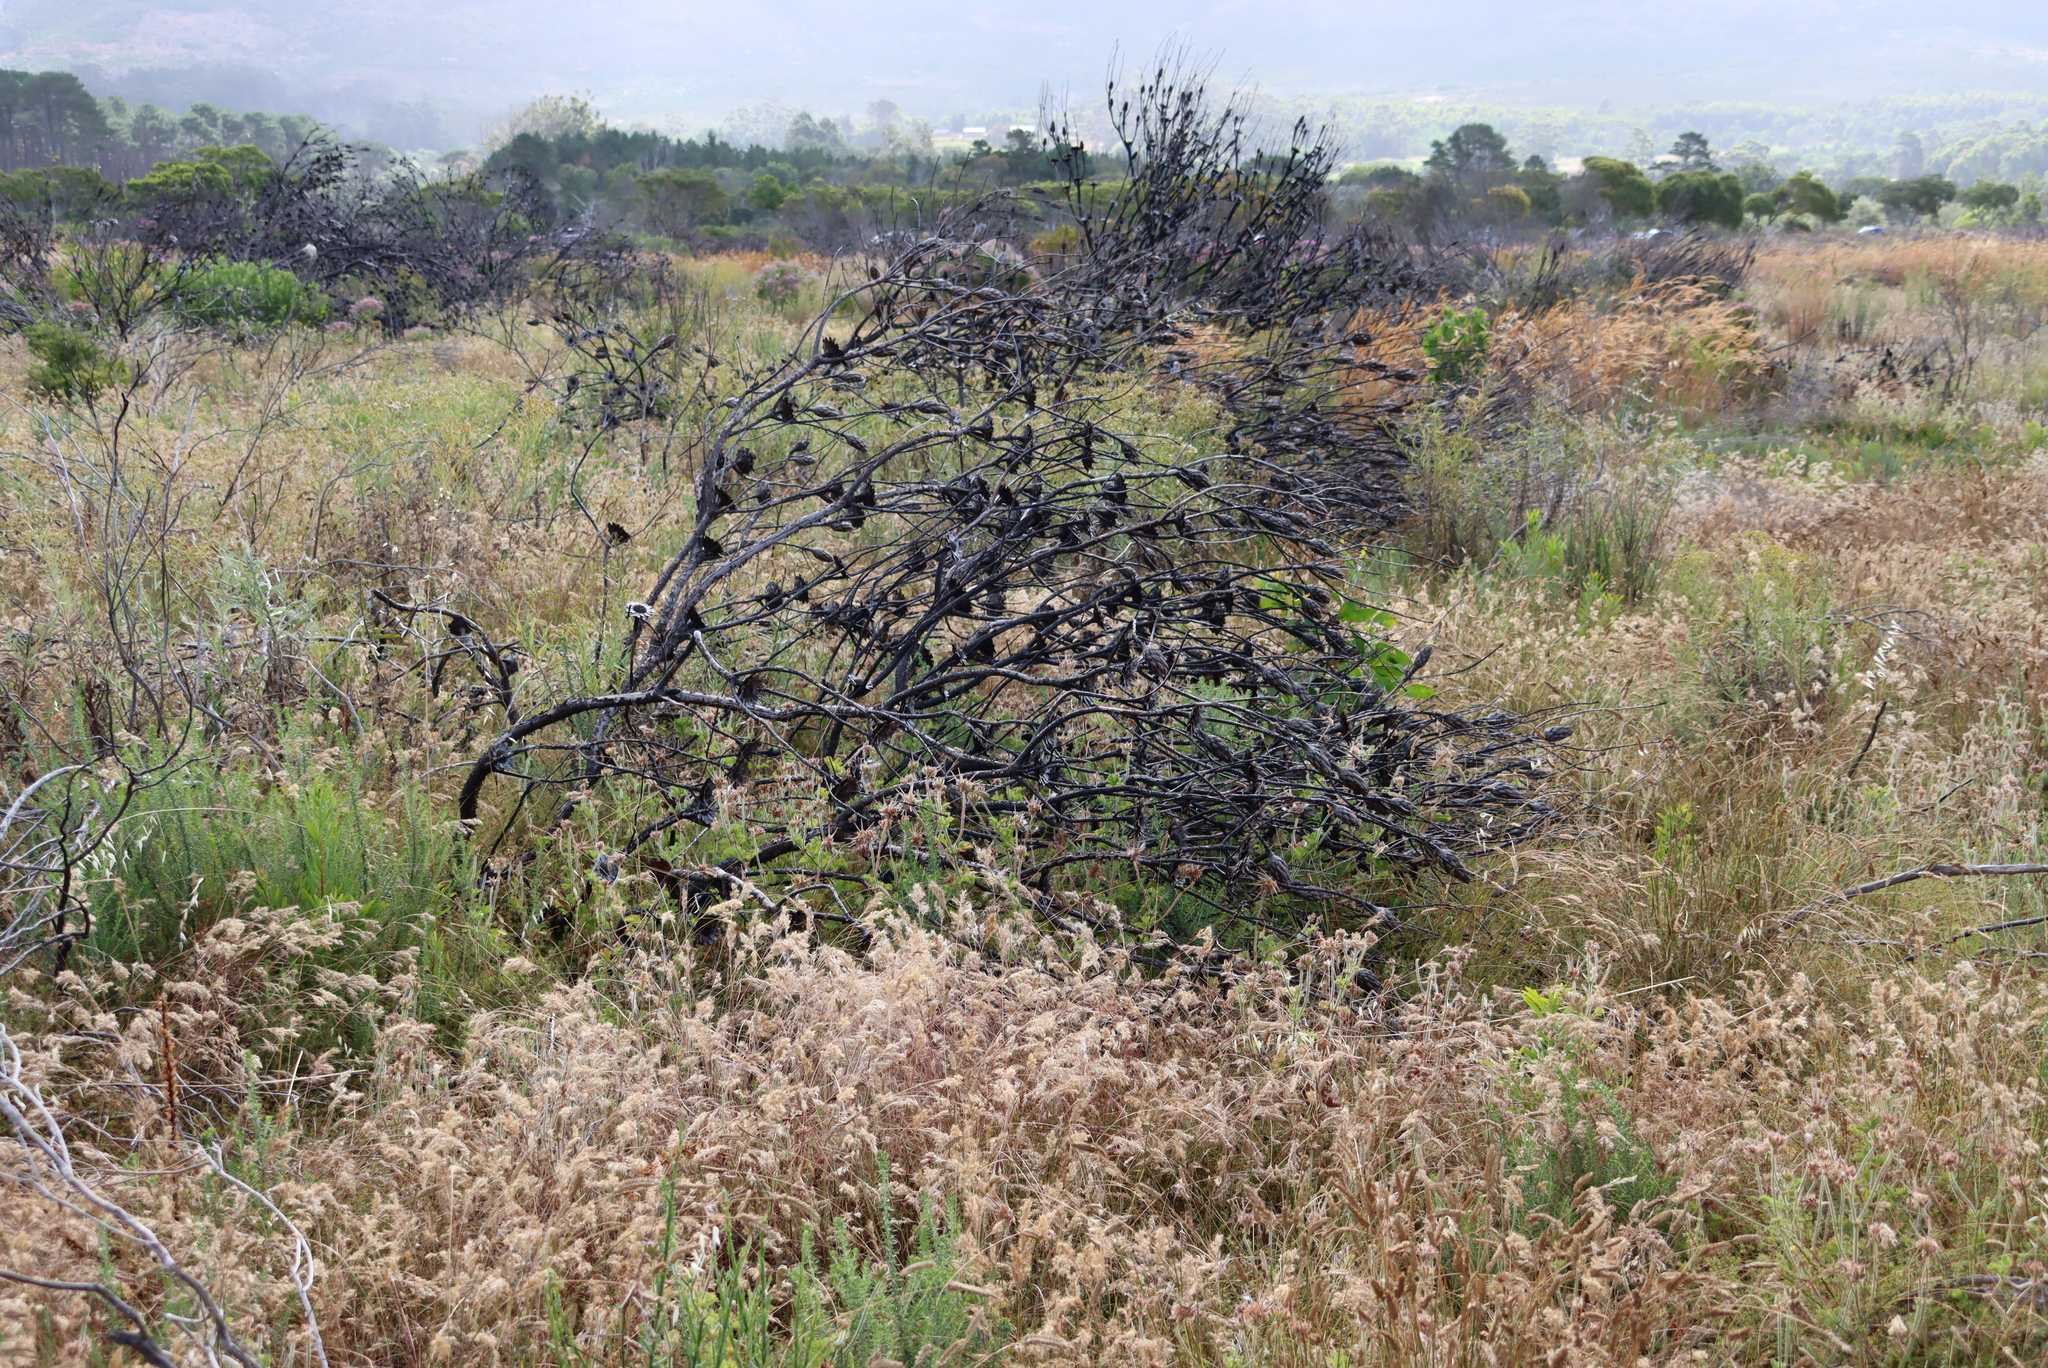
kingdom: Plantae
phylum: Tracheophyta
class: Magnoliopsida
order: Proteales
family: Proteaceae
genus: Protea
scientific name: Protea repens
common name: Sugarbush
